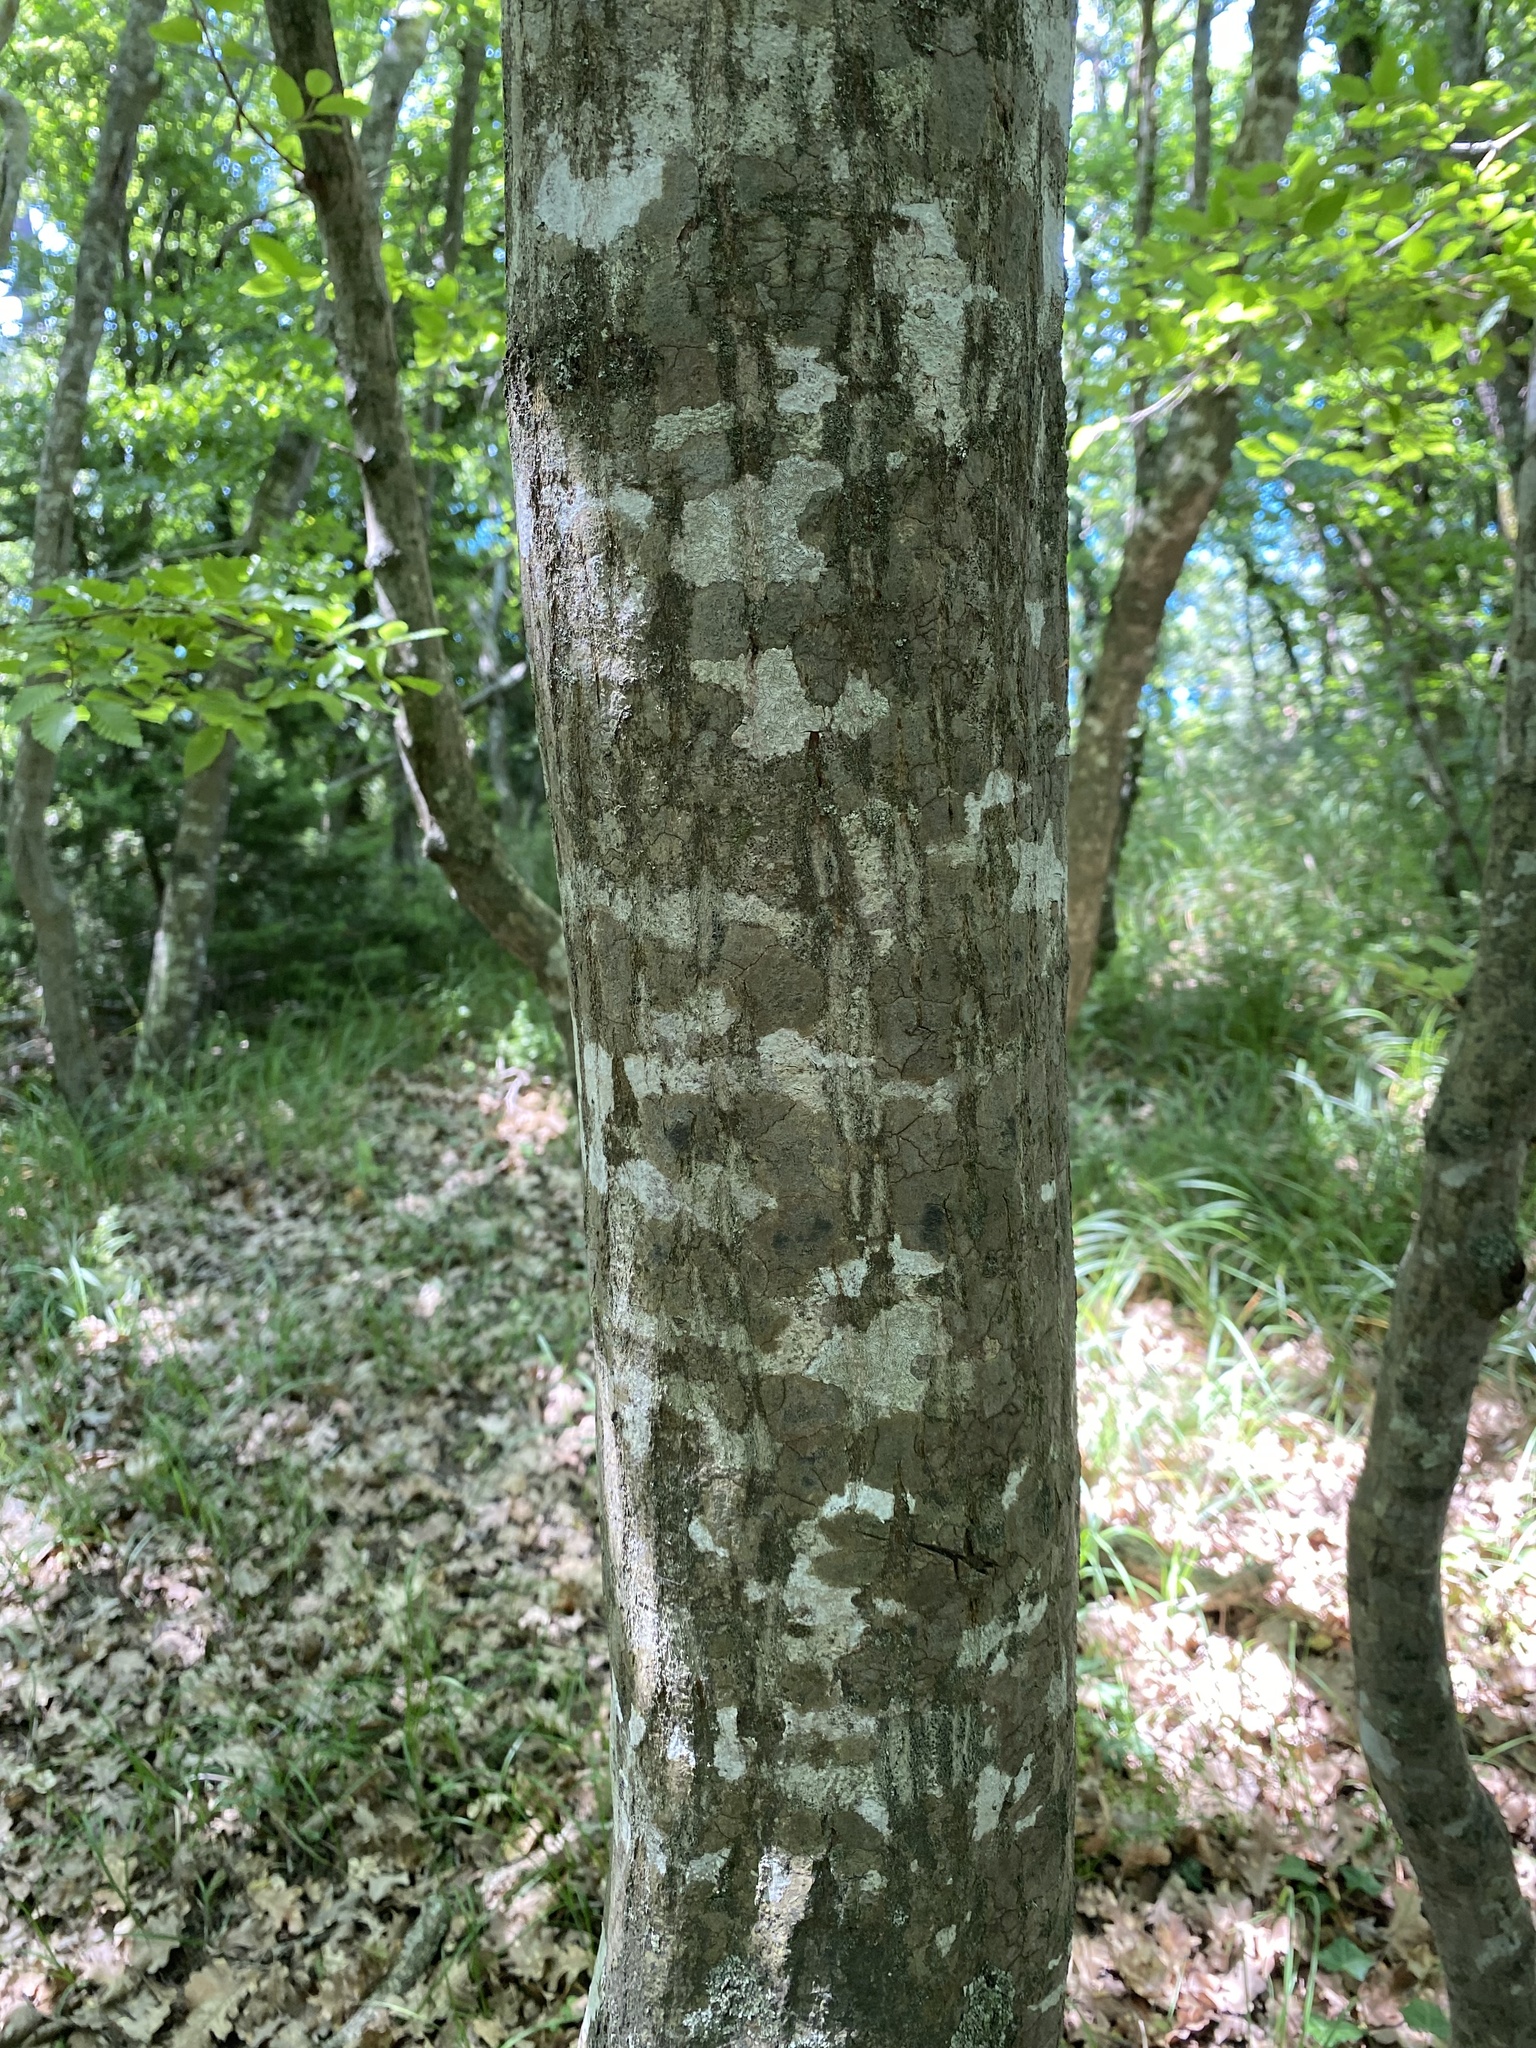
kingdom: Plantae
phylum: Tracheophyta
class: Magnoliopsida
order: Fagales
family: Betulaceae
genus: Carpinus
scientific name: Carpinus orientalis
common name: Eastern hornbeam
